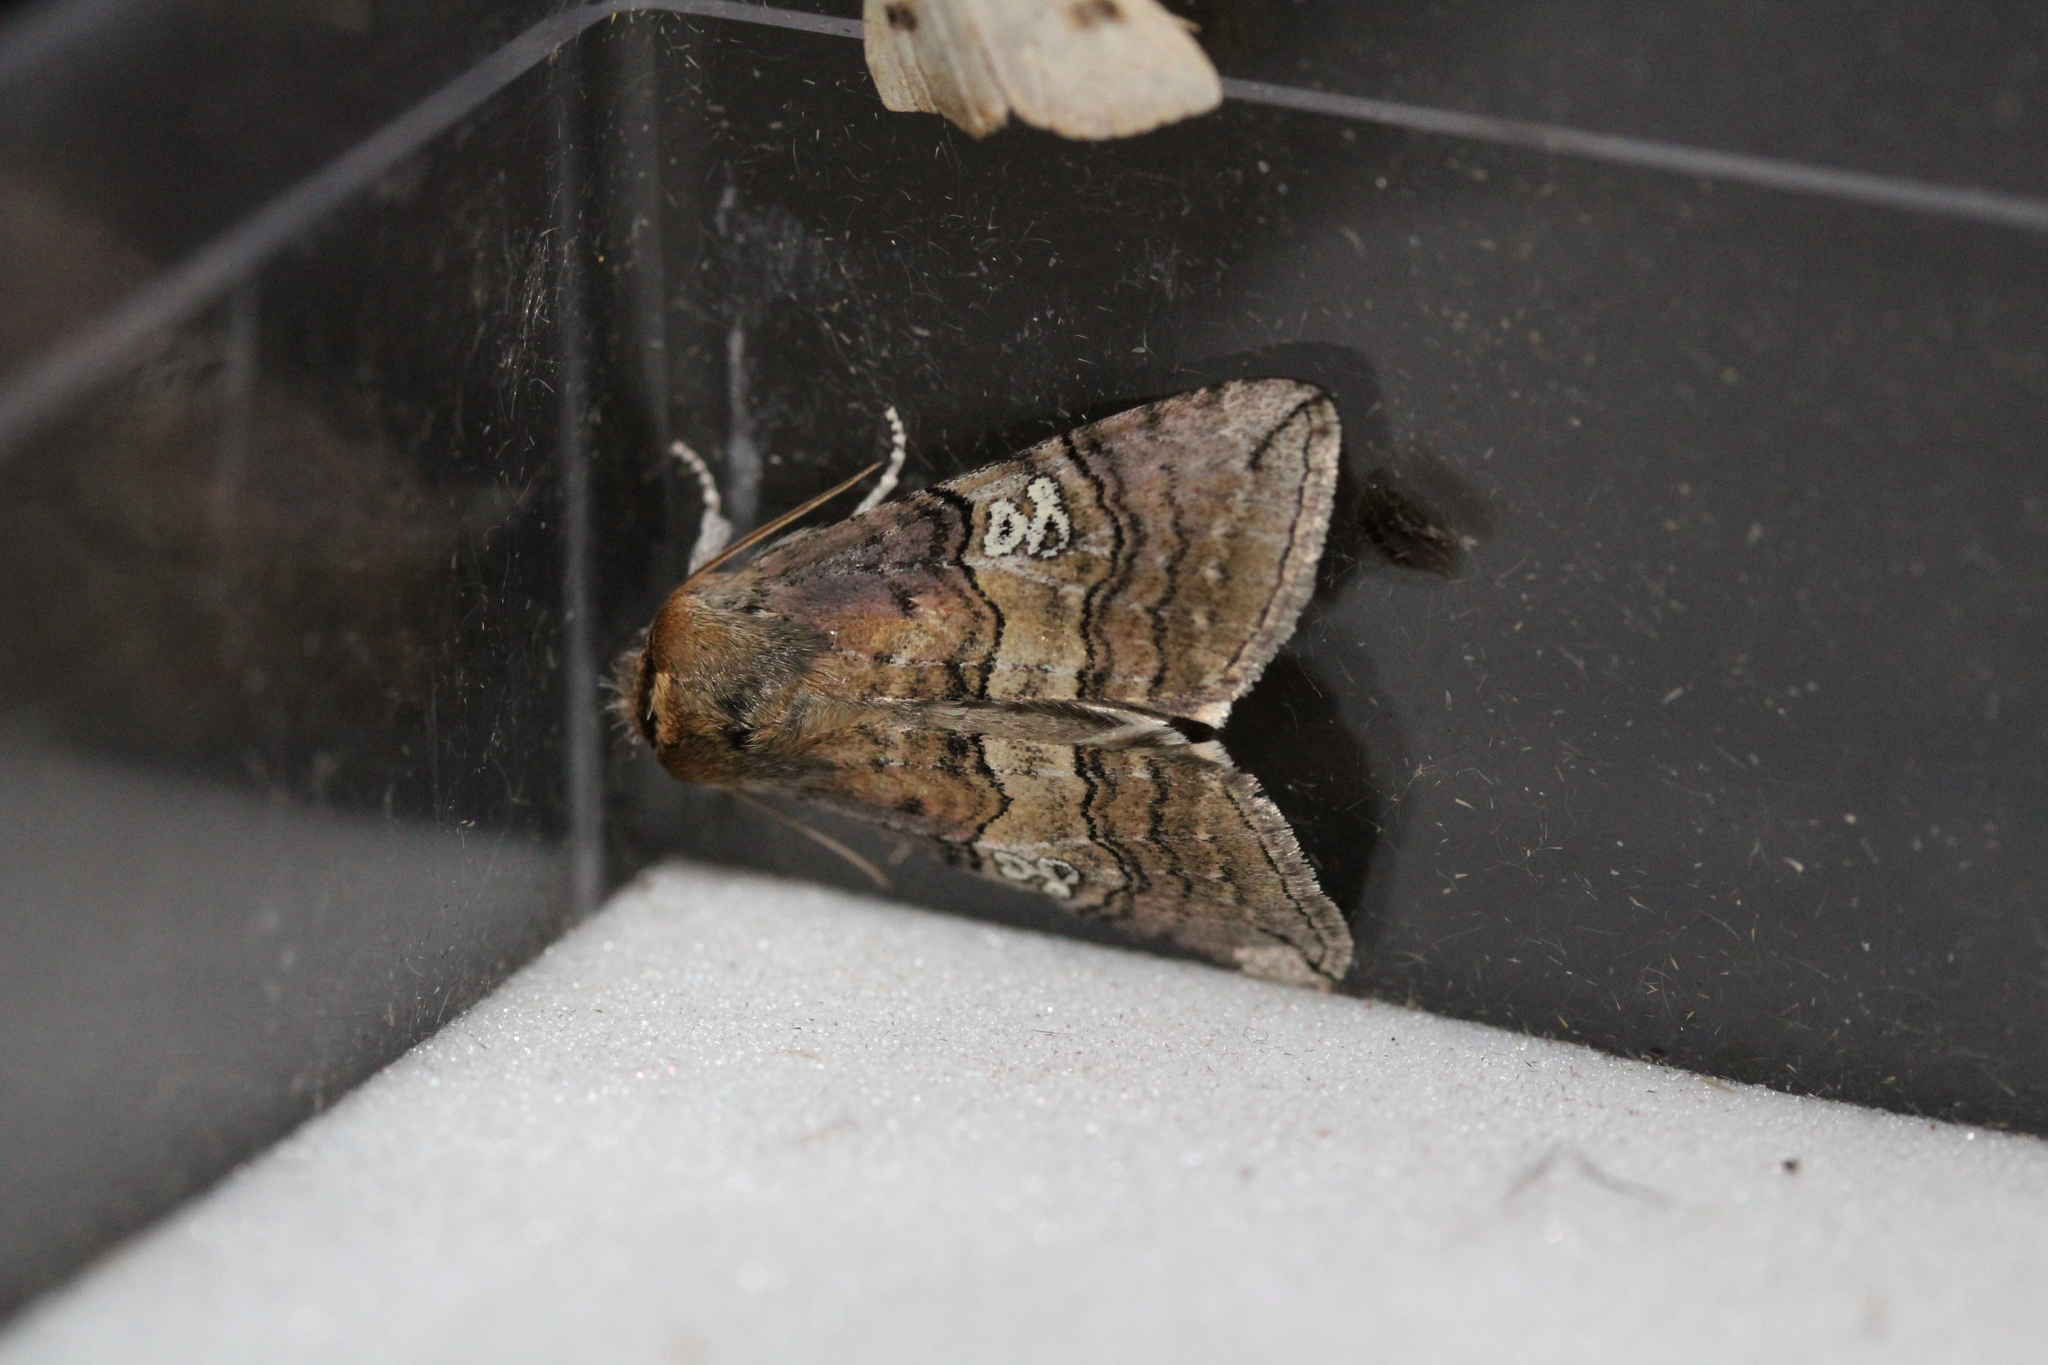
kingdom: Animalia
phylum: Arthropoda
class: Insecta
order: Lepidoptera
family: Drepanidae
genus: Tethea
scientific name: Tethea ocularis
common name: Figure of eighty
